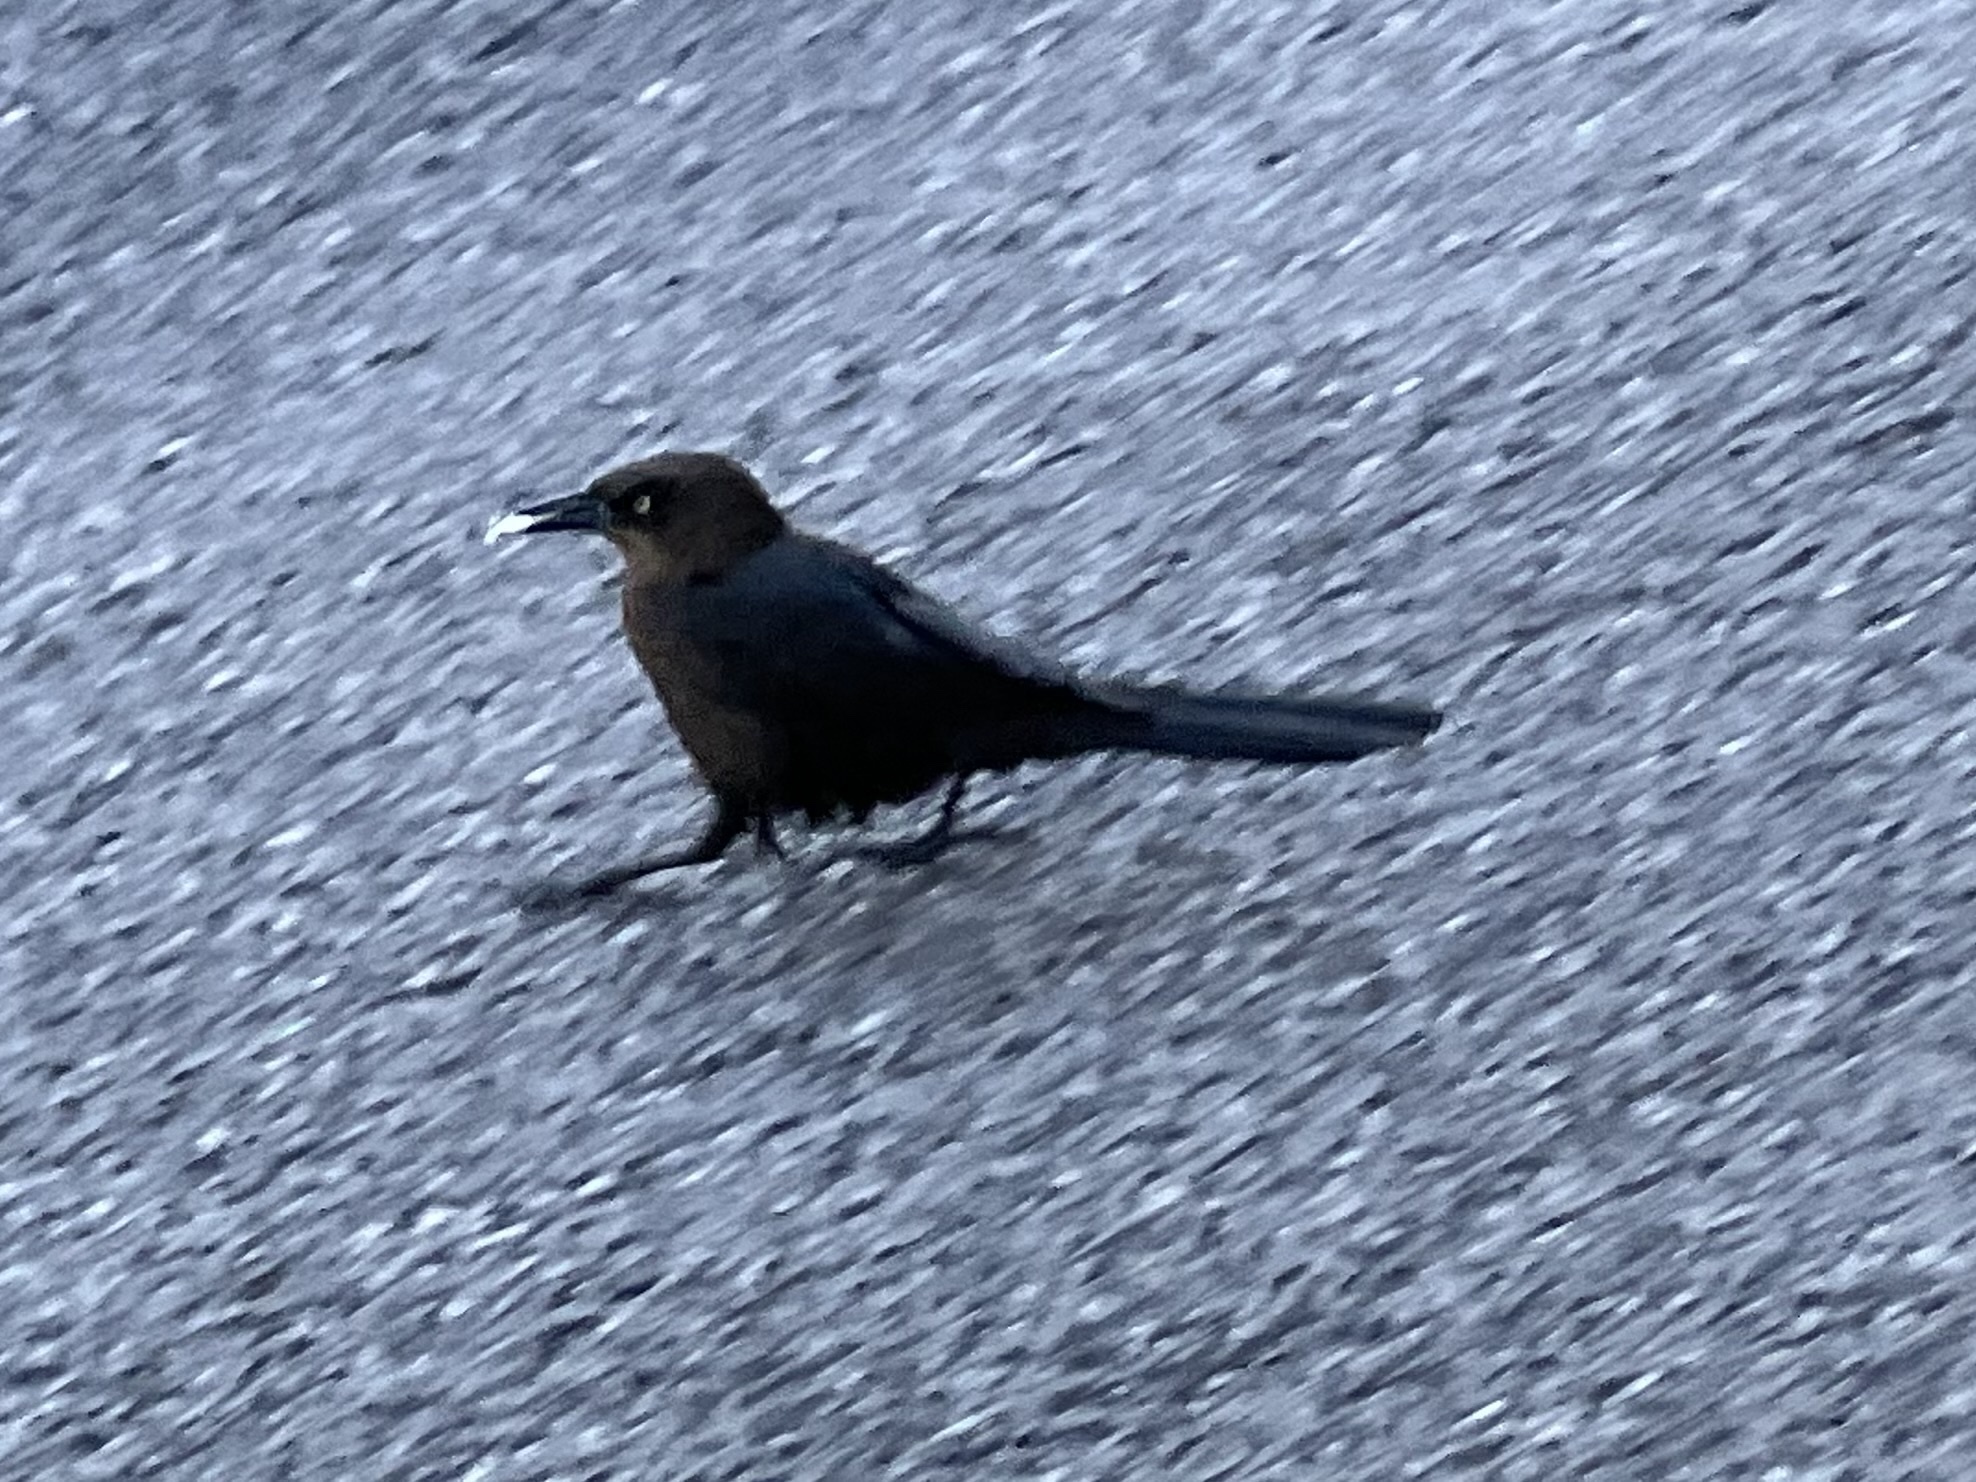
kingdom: Animalia
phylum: Chordata
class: Aves
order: Passeriformes
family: Icteridae
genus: Quiscalus
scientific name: Quiscalus mexicanus
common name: Great-tailed grackle
